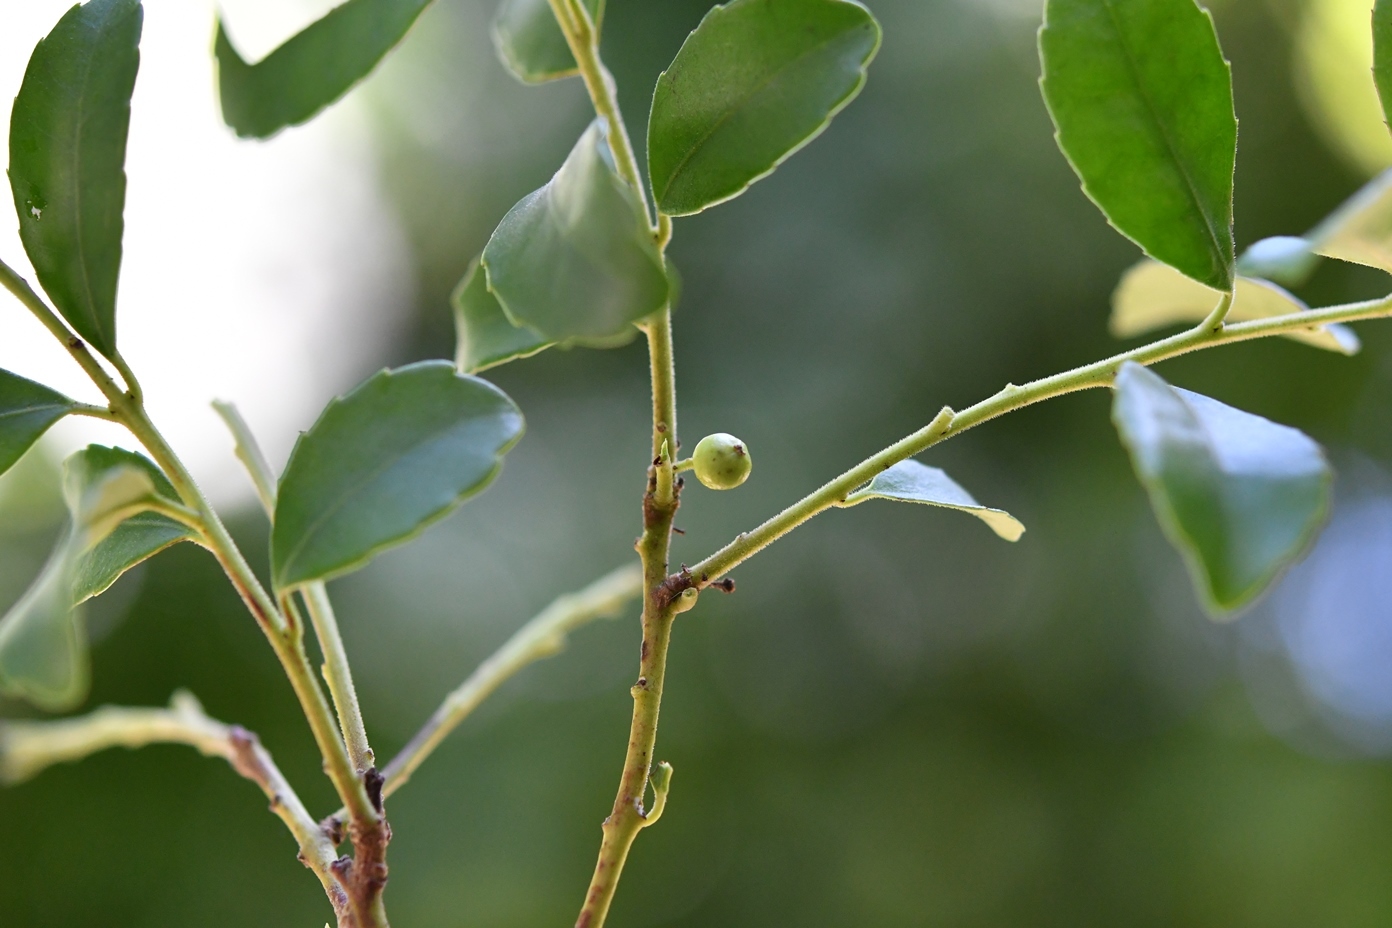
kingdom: Plantae
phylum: Tracheophyta
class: Magnoliopsida
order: Aquifoliales
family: Aquifoliaceae
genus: Ilex
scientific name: Ilex vomitoria
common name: Yaupon holly
